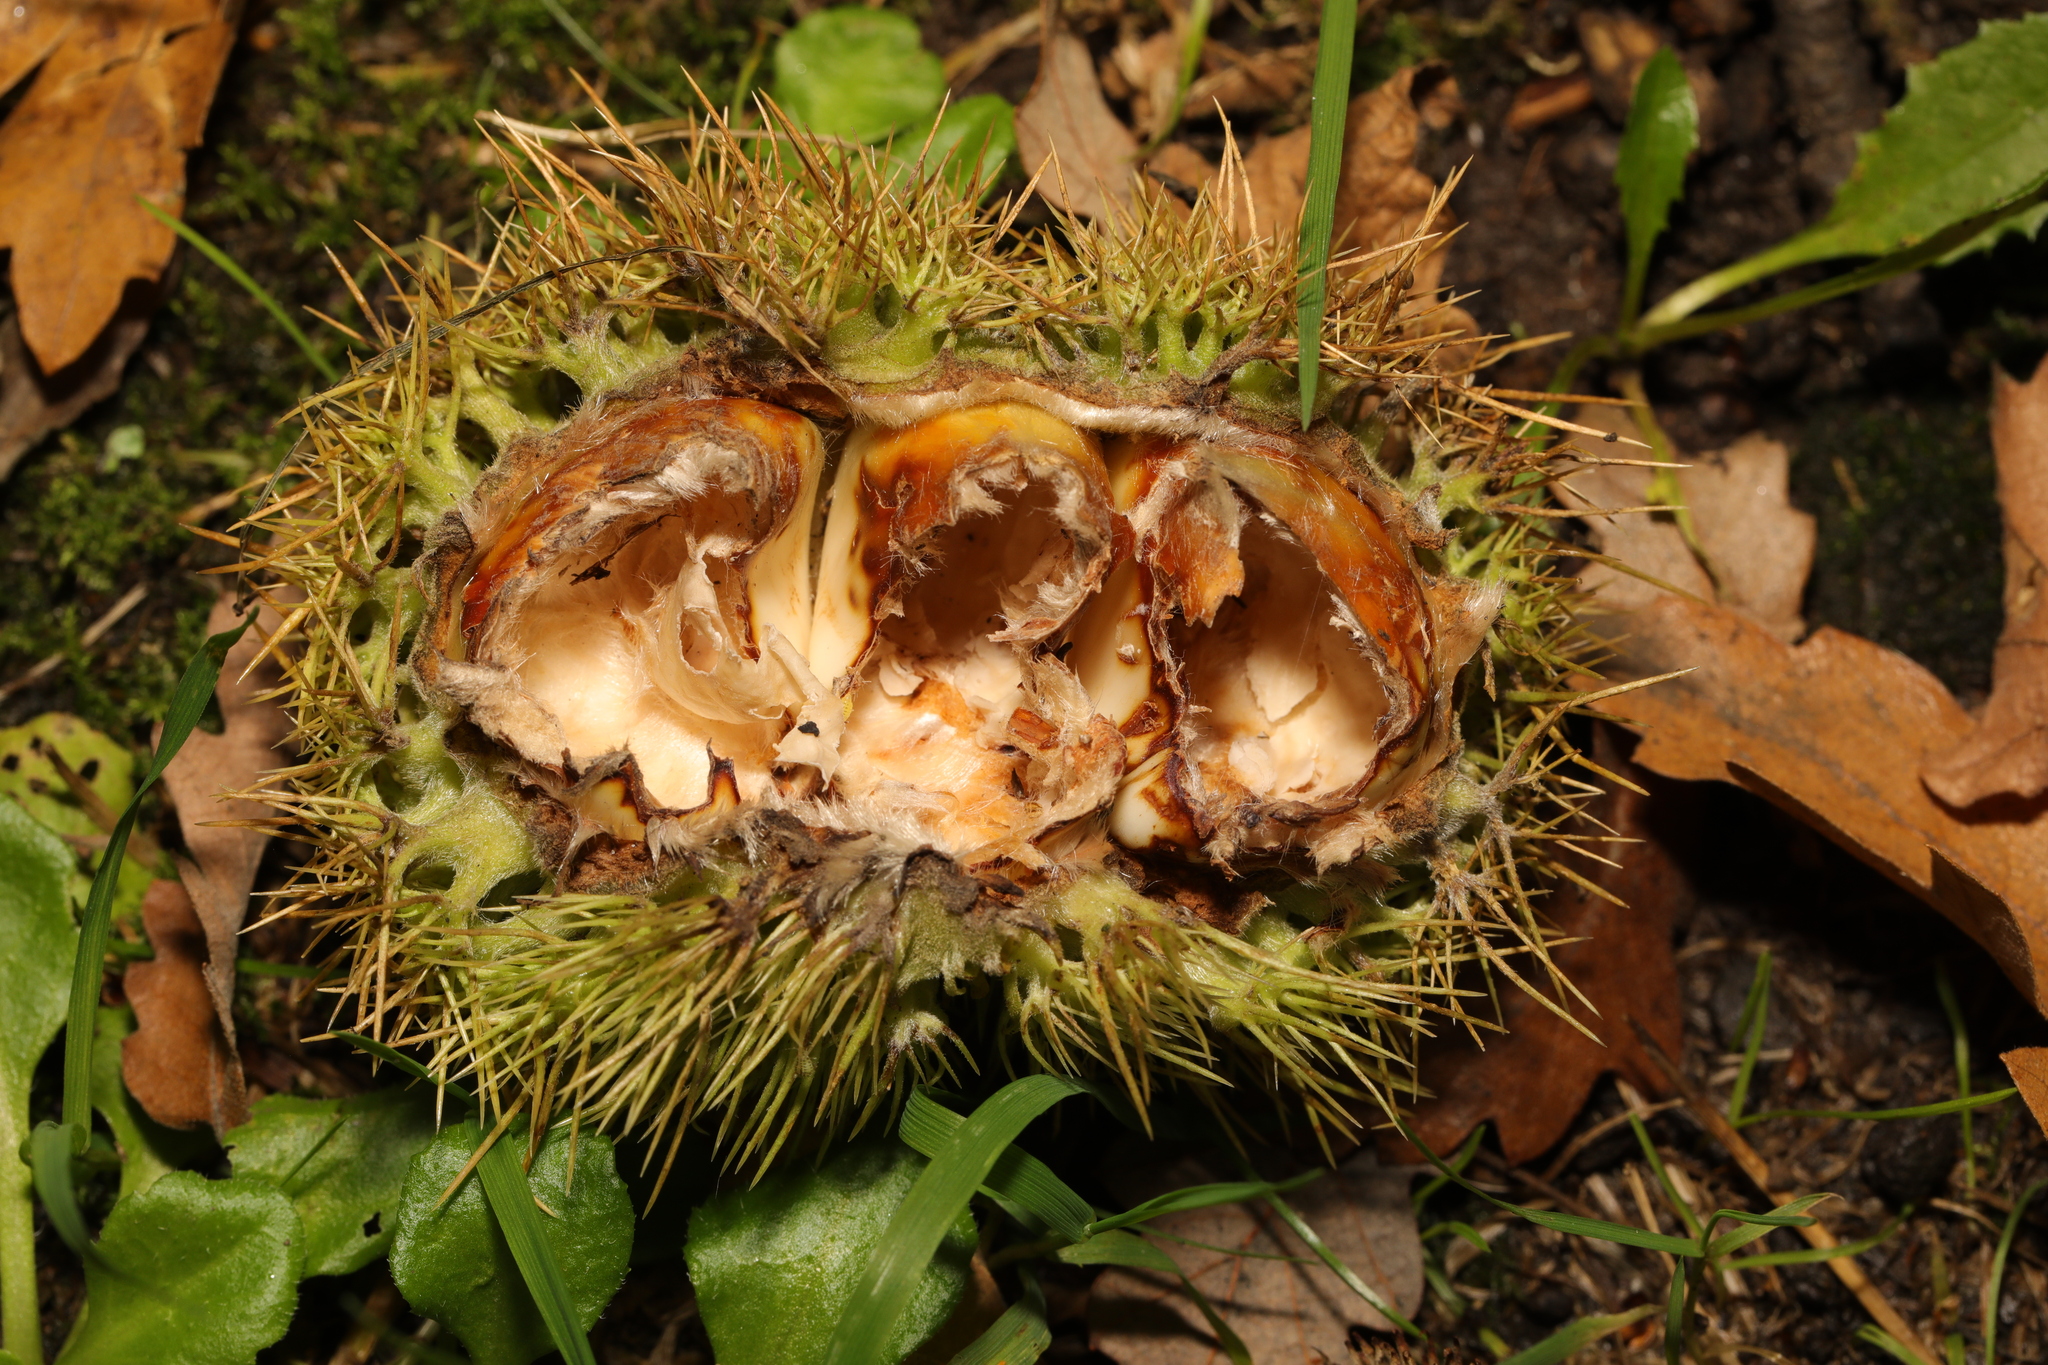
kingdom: Plantae
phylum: Tracheophyta
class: Magnoliopsida
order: Fagales
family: Fagaceae
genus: Castanea
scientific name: Castanea sativa
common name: Sweet chestnut
